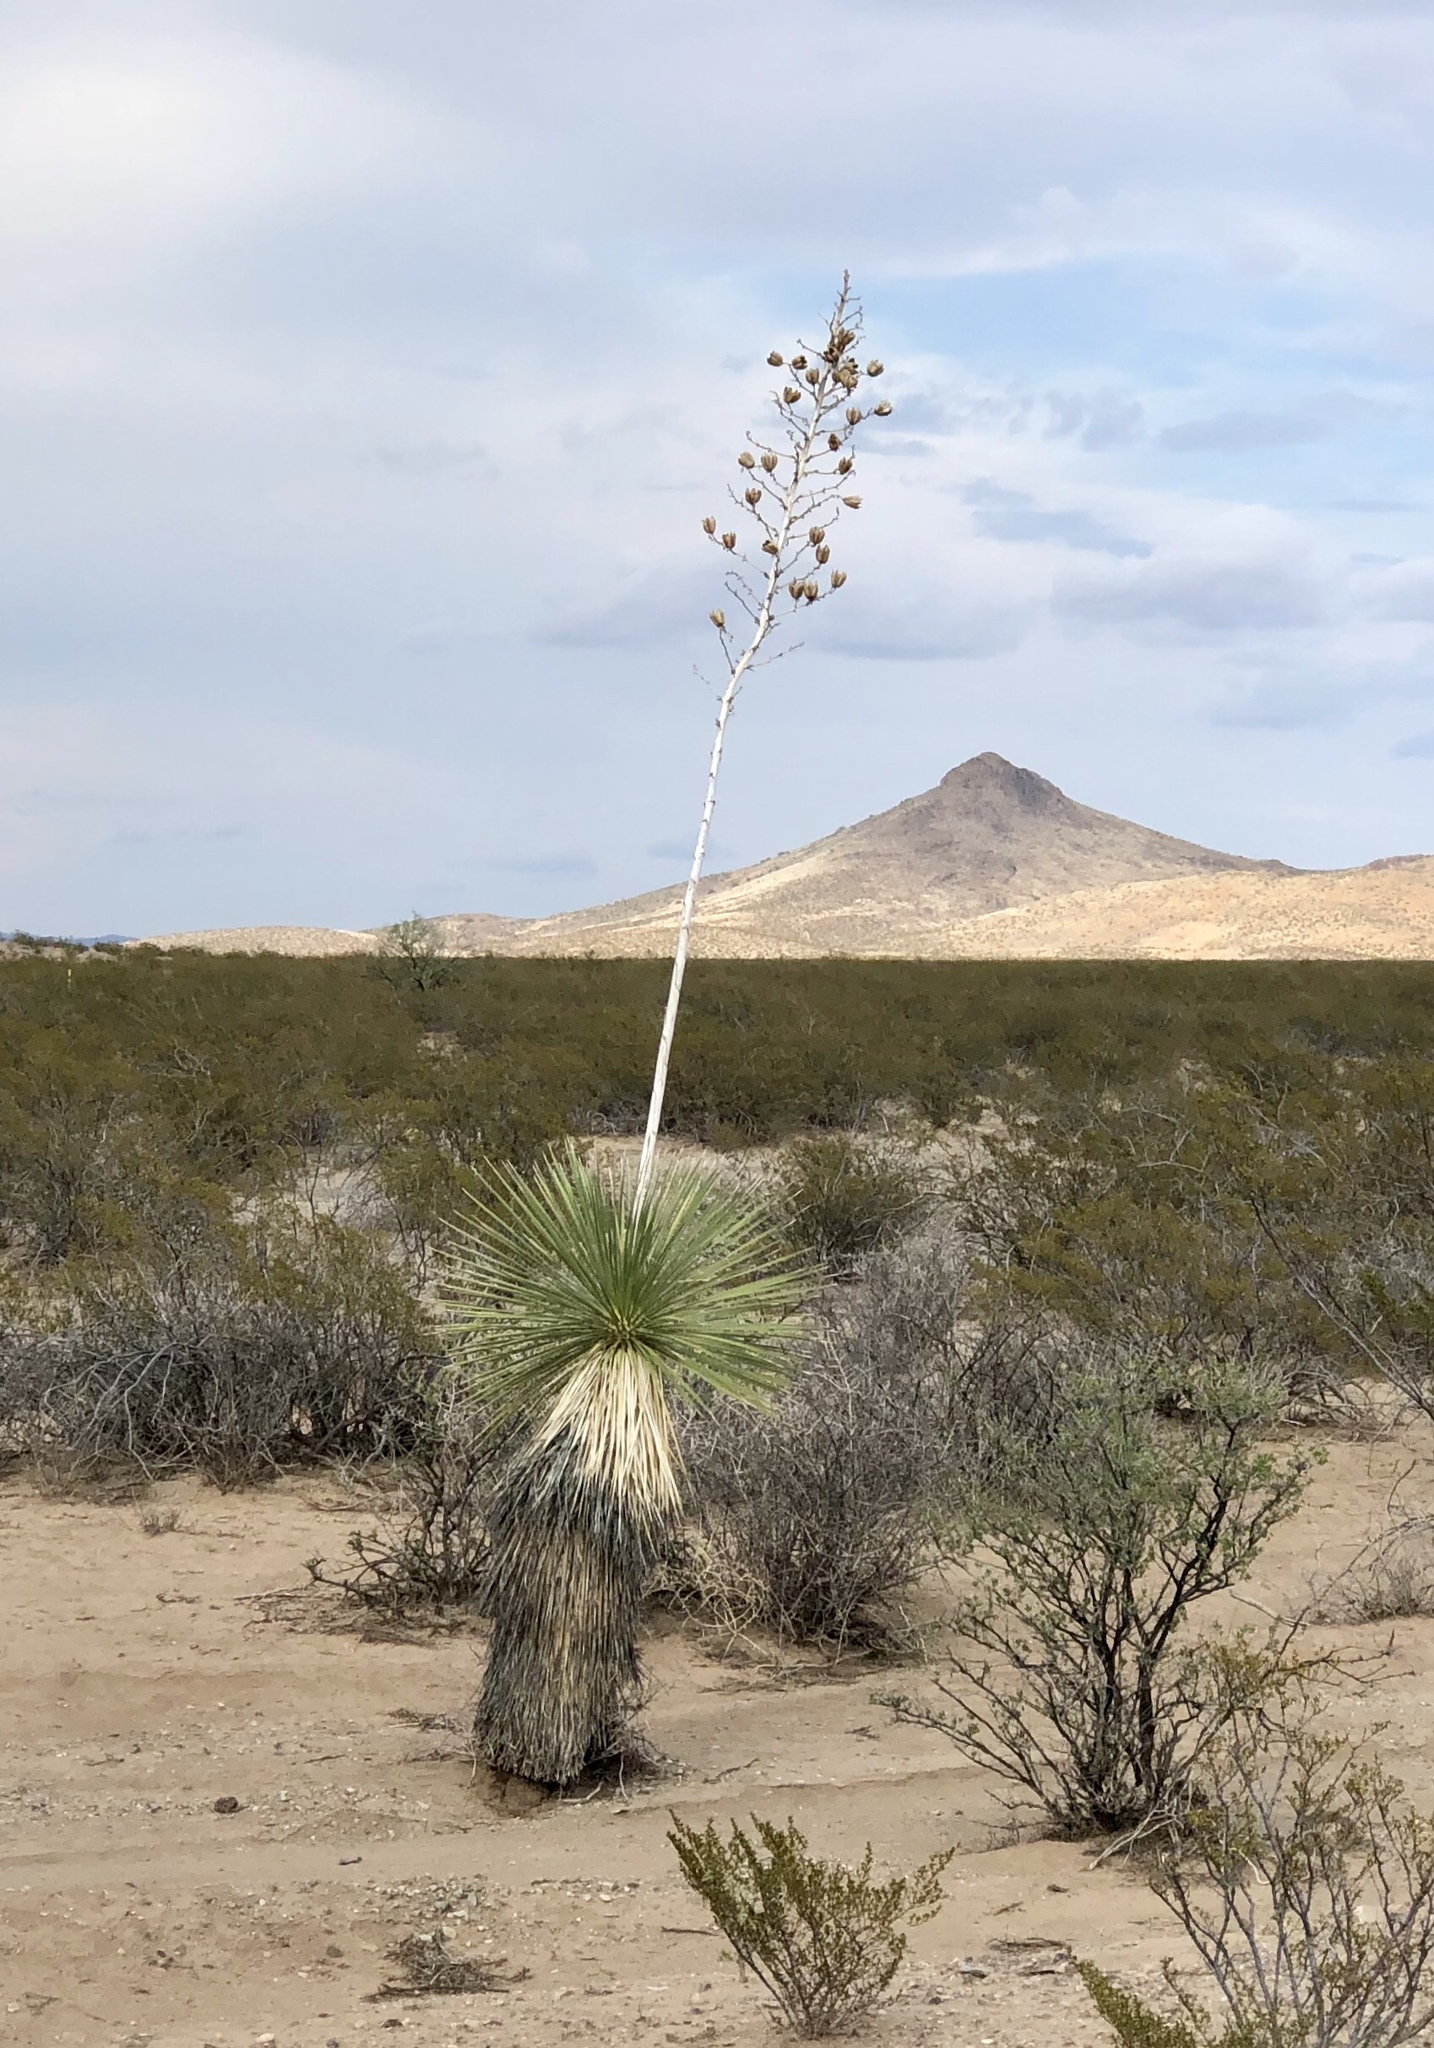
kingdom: Plantae
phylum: Tracheophyta
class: Liliopsida
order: Asparagales
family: Asparagaceae
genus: Yucca
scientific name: Yucca elata
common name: Palmella
